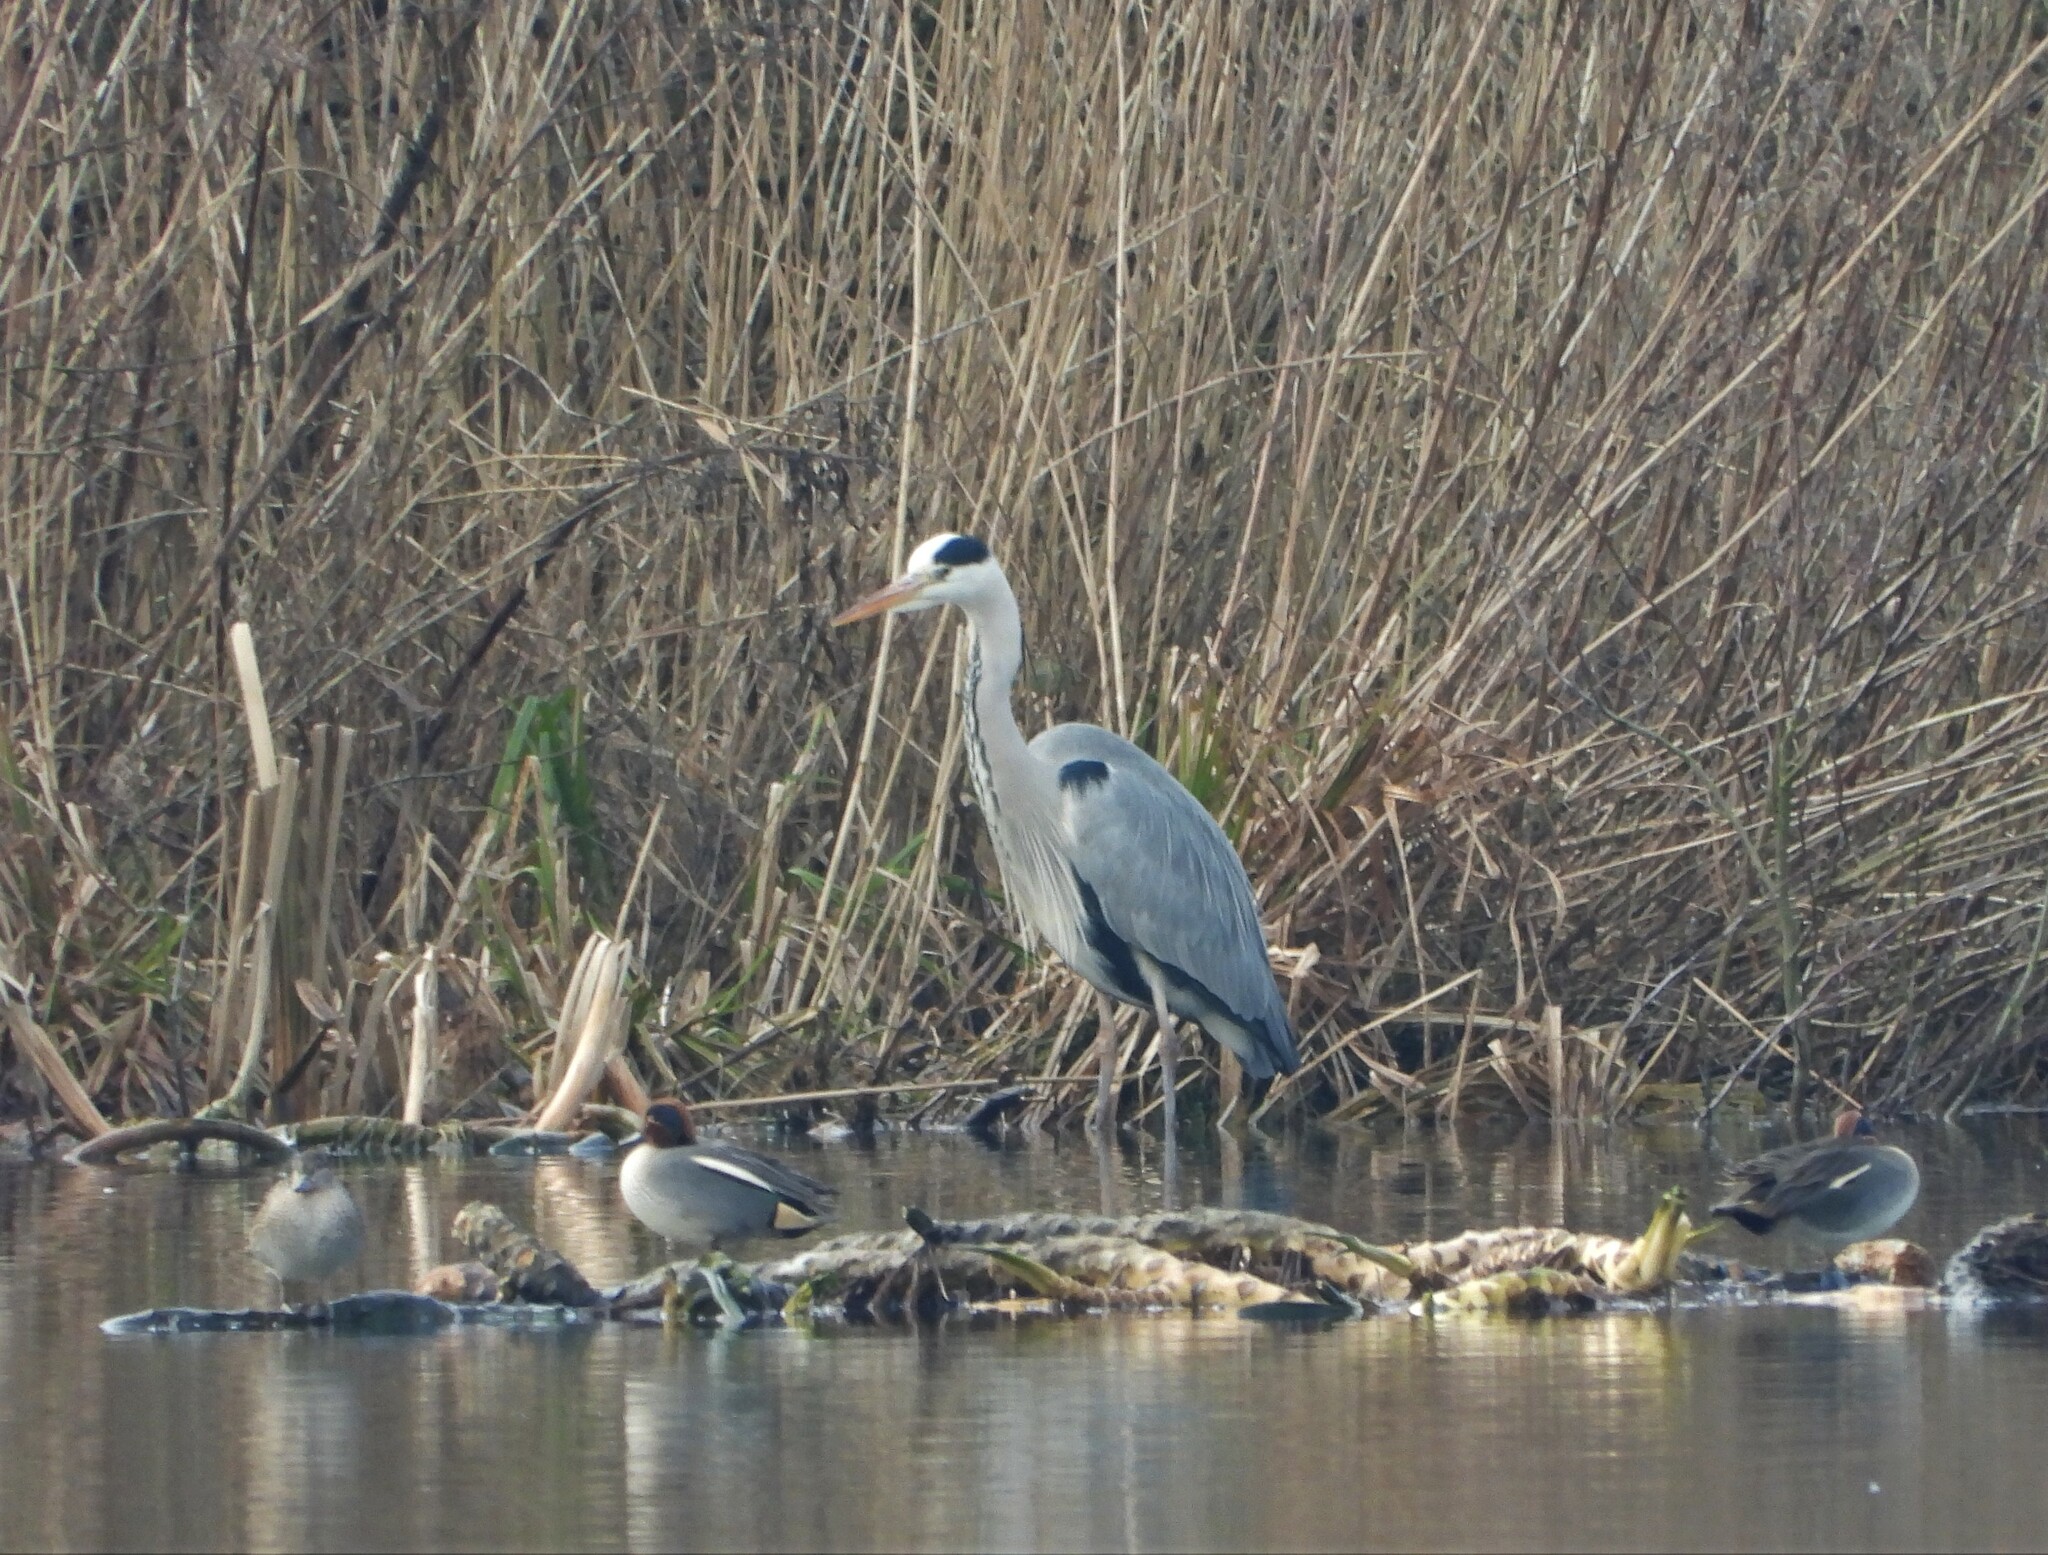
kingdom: Animalia
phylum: Chordata
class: Aves
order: Pelecaniformes
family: Ardeidae
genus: Ardea
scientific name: Ardea cinerea
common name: Grey heron
